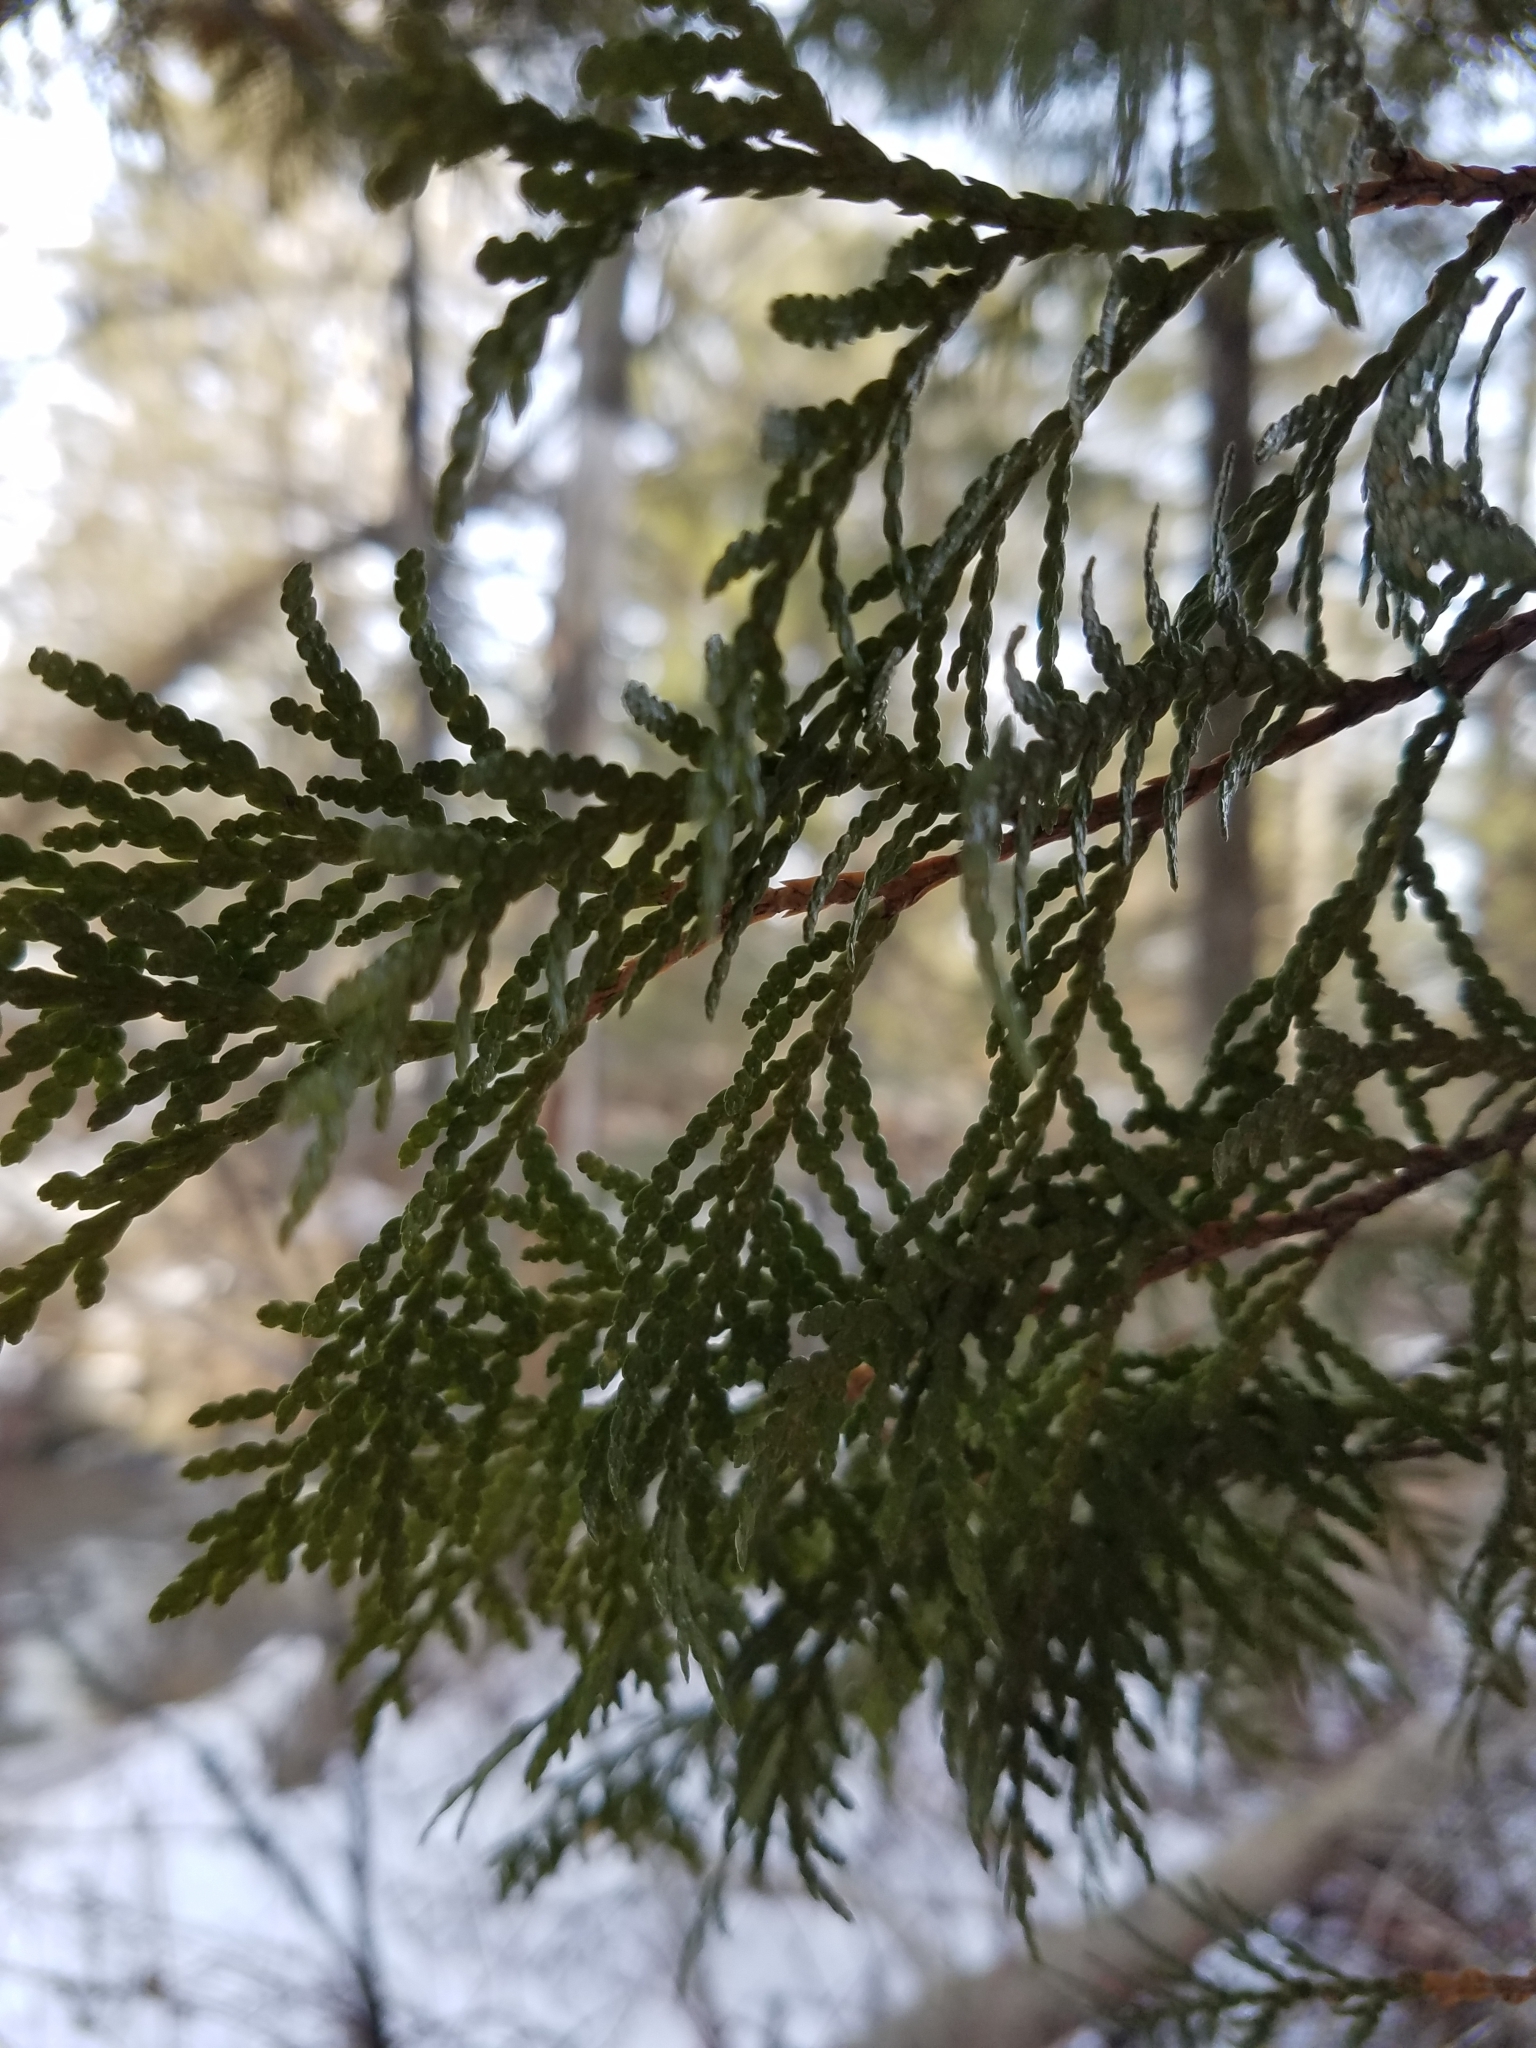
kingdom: Plantae
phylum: Tracheophyta
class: Pinopsida
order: Pinales
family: Cupressaceae
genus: Thuja
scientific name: Thuja occidentalis
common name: Northern white-cedar
